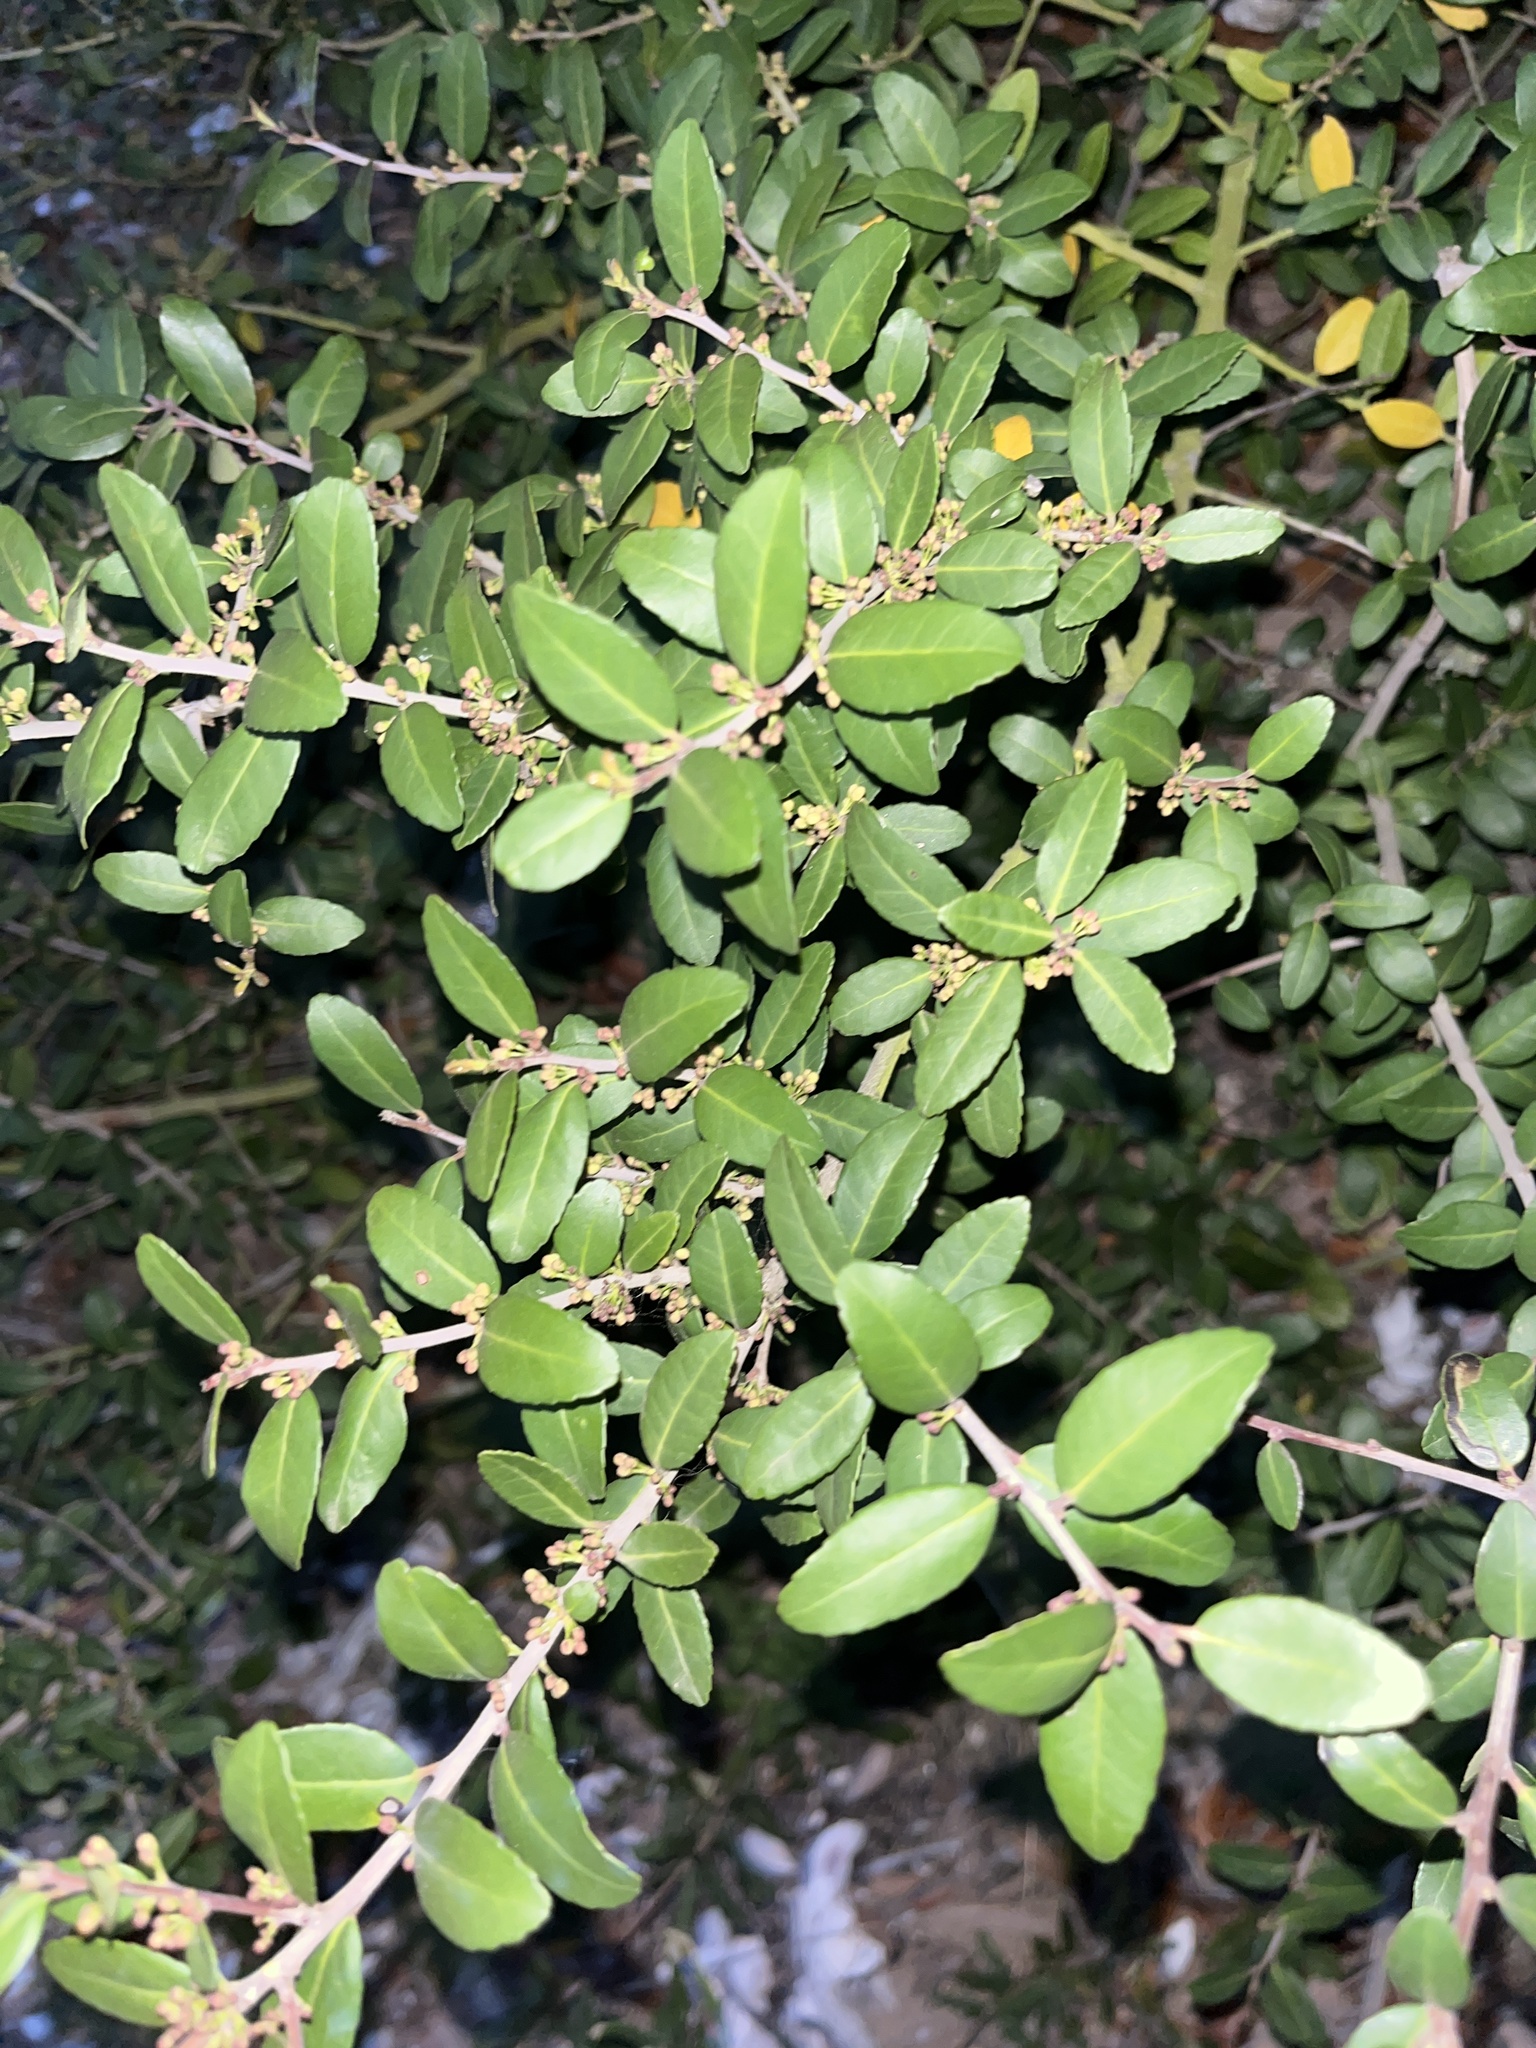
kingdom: Plantae
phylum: Tracheophyta
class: Magnoliopsida
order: Aquifoliales
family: Aquifoliaceae
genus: Ilex
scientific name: Ilex vomitoria
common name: Yaupon holly
